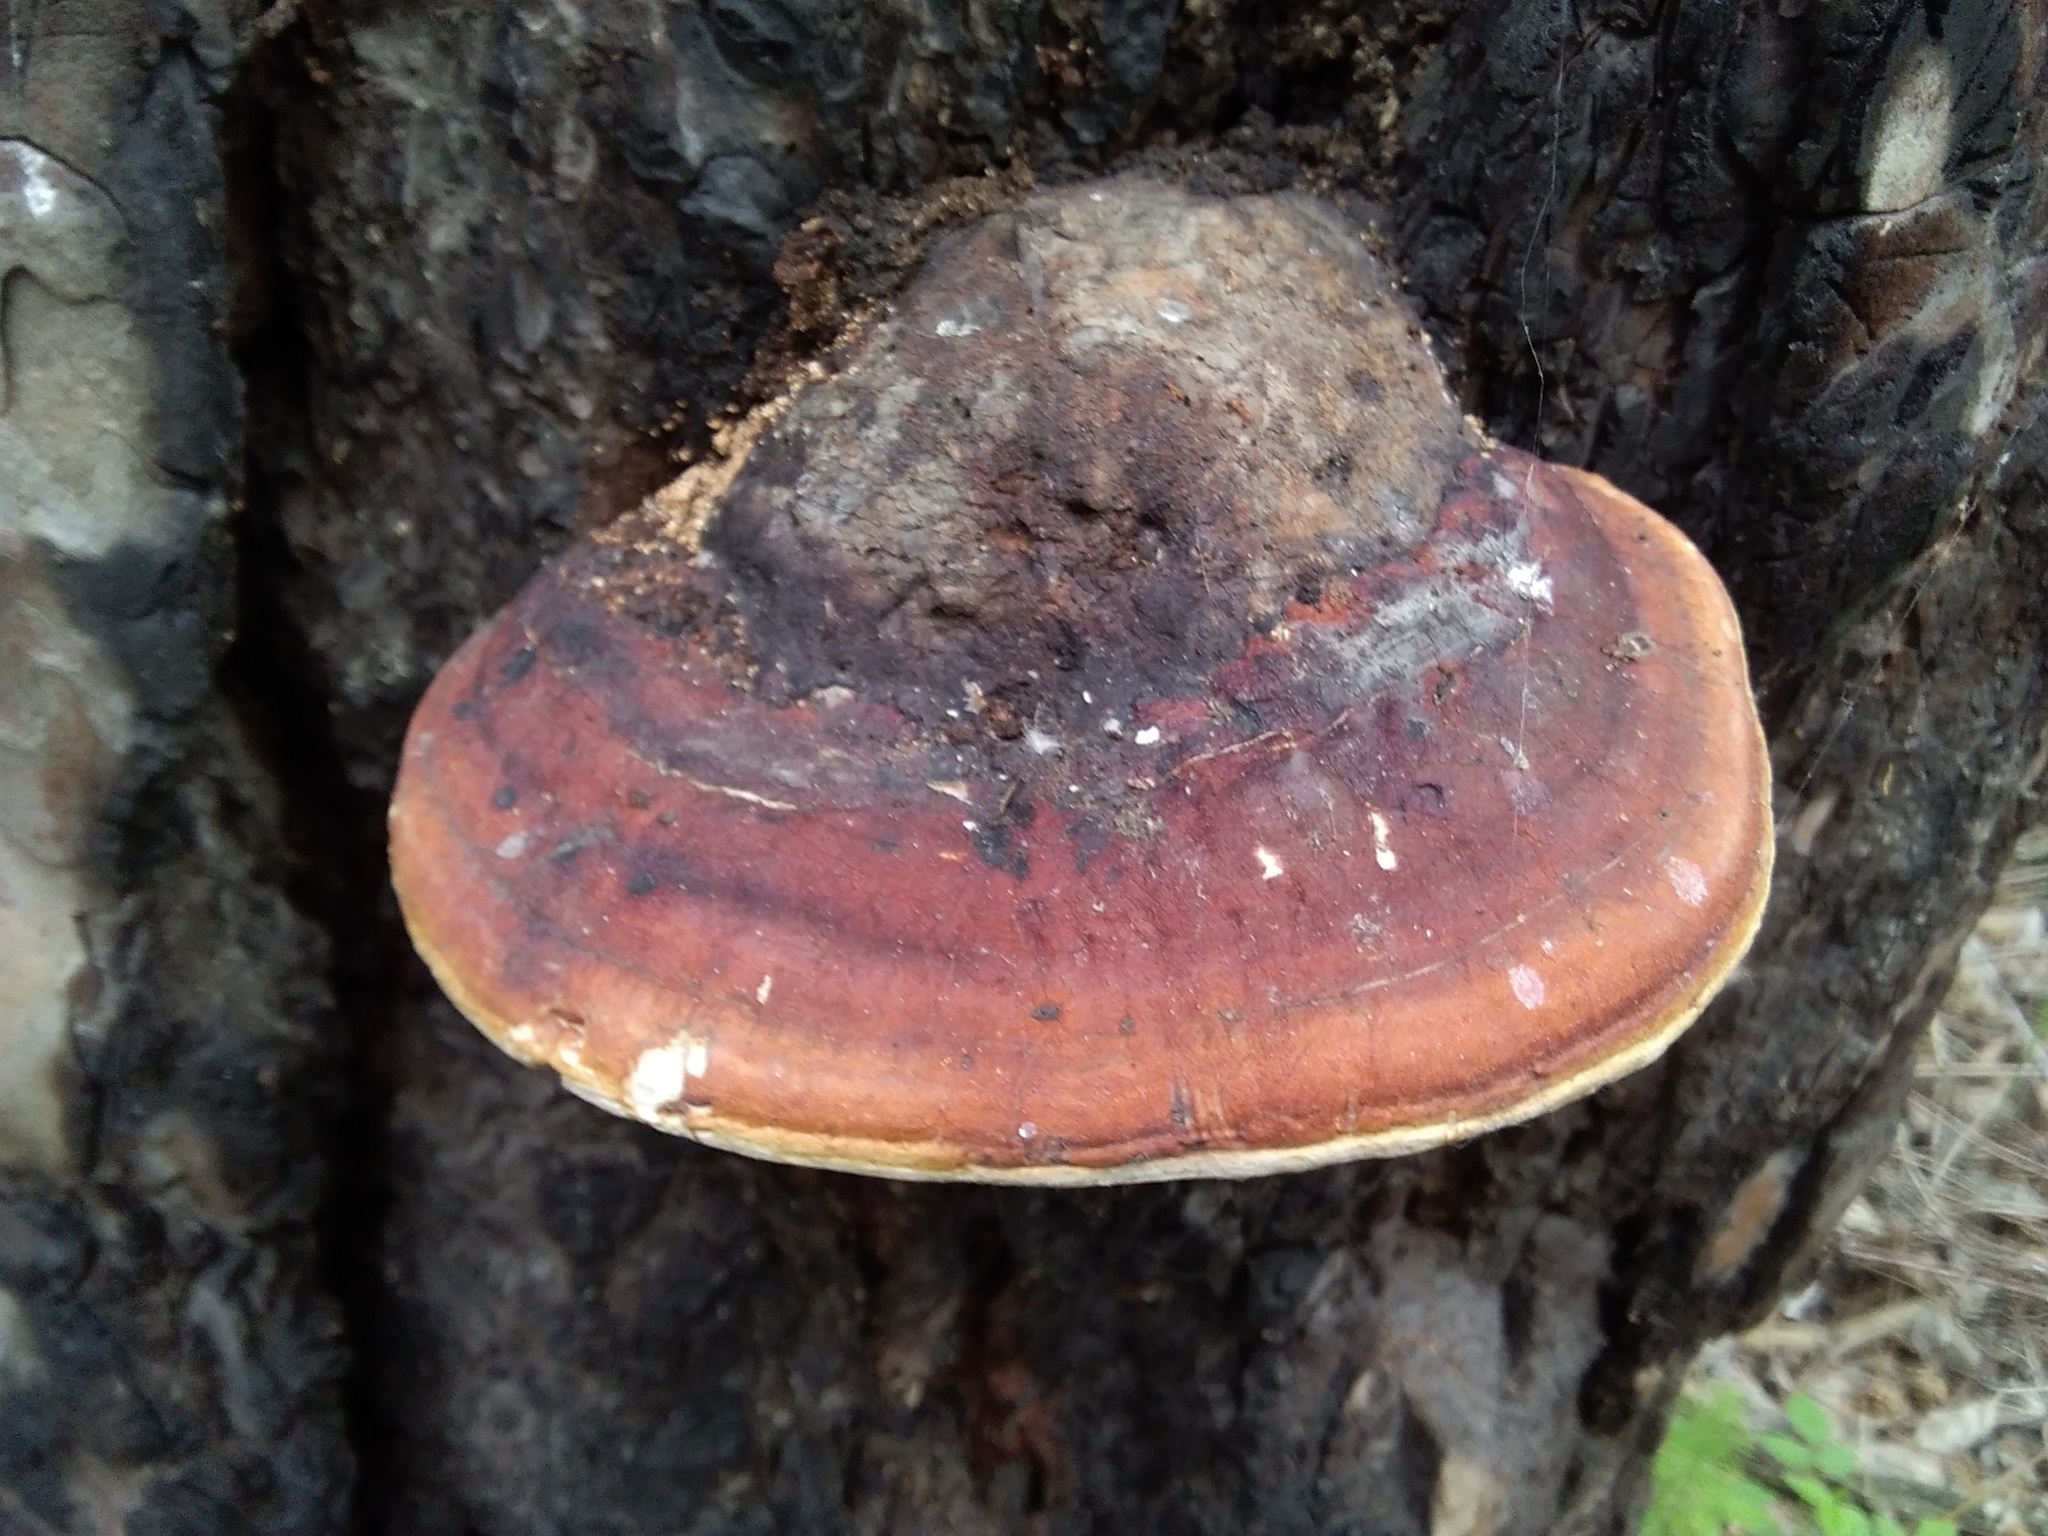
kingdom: Fungi
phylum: Basidiomycota
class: Agaricomycetes
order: Polyporales
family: Fomitopsidaceae
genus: Fomitopsis
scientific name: Fomitopsis pinicola
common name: Red-belted bracket
